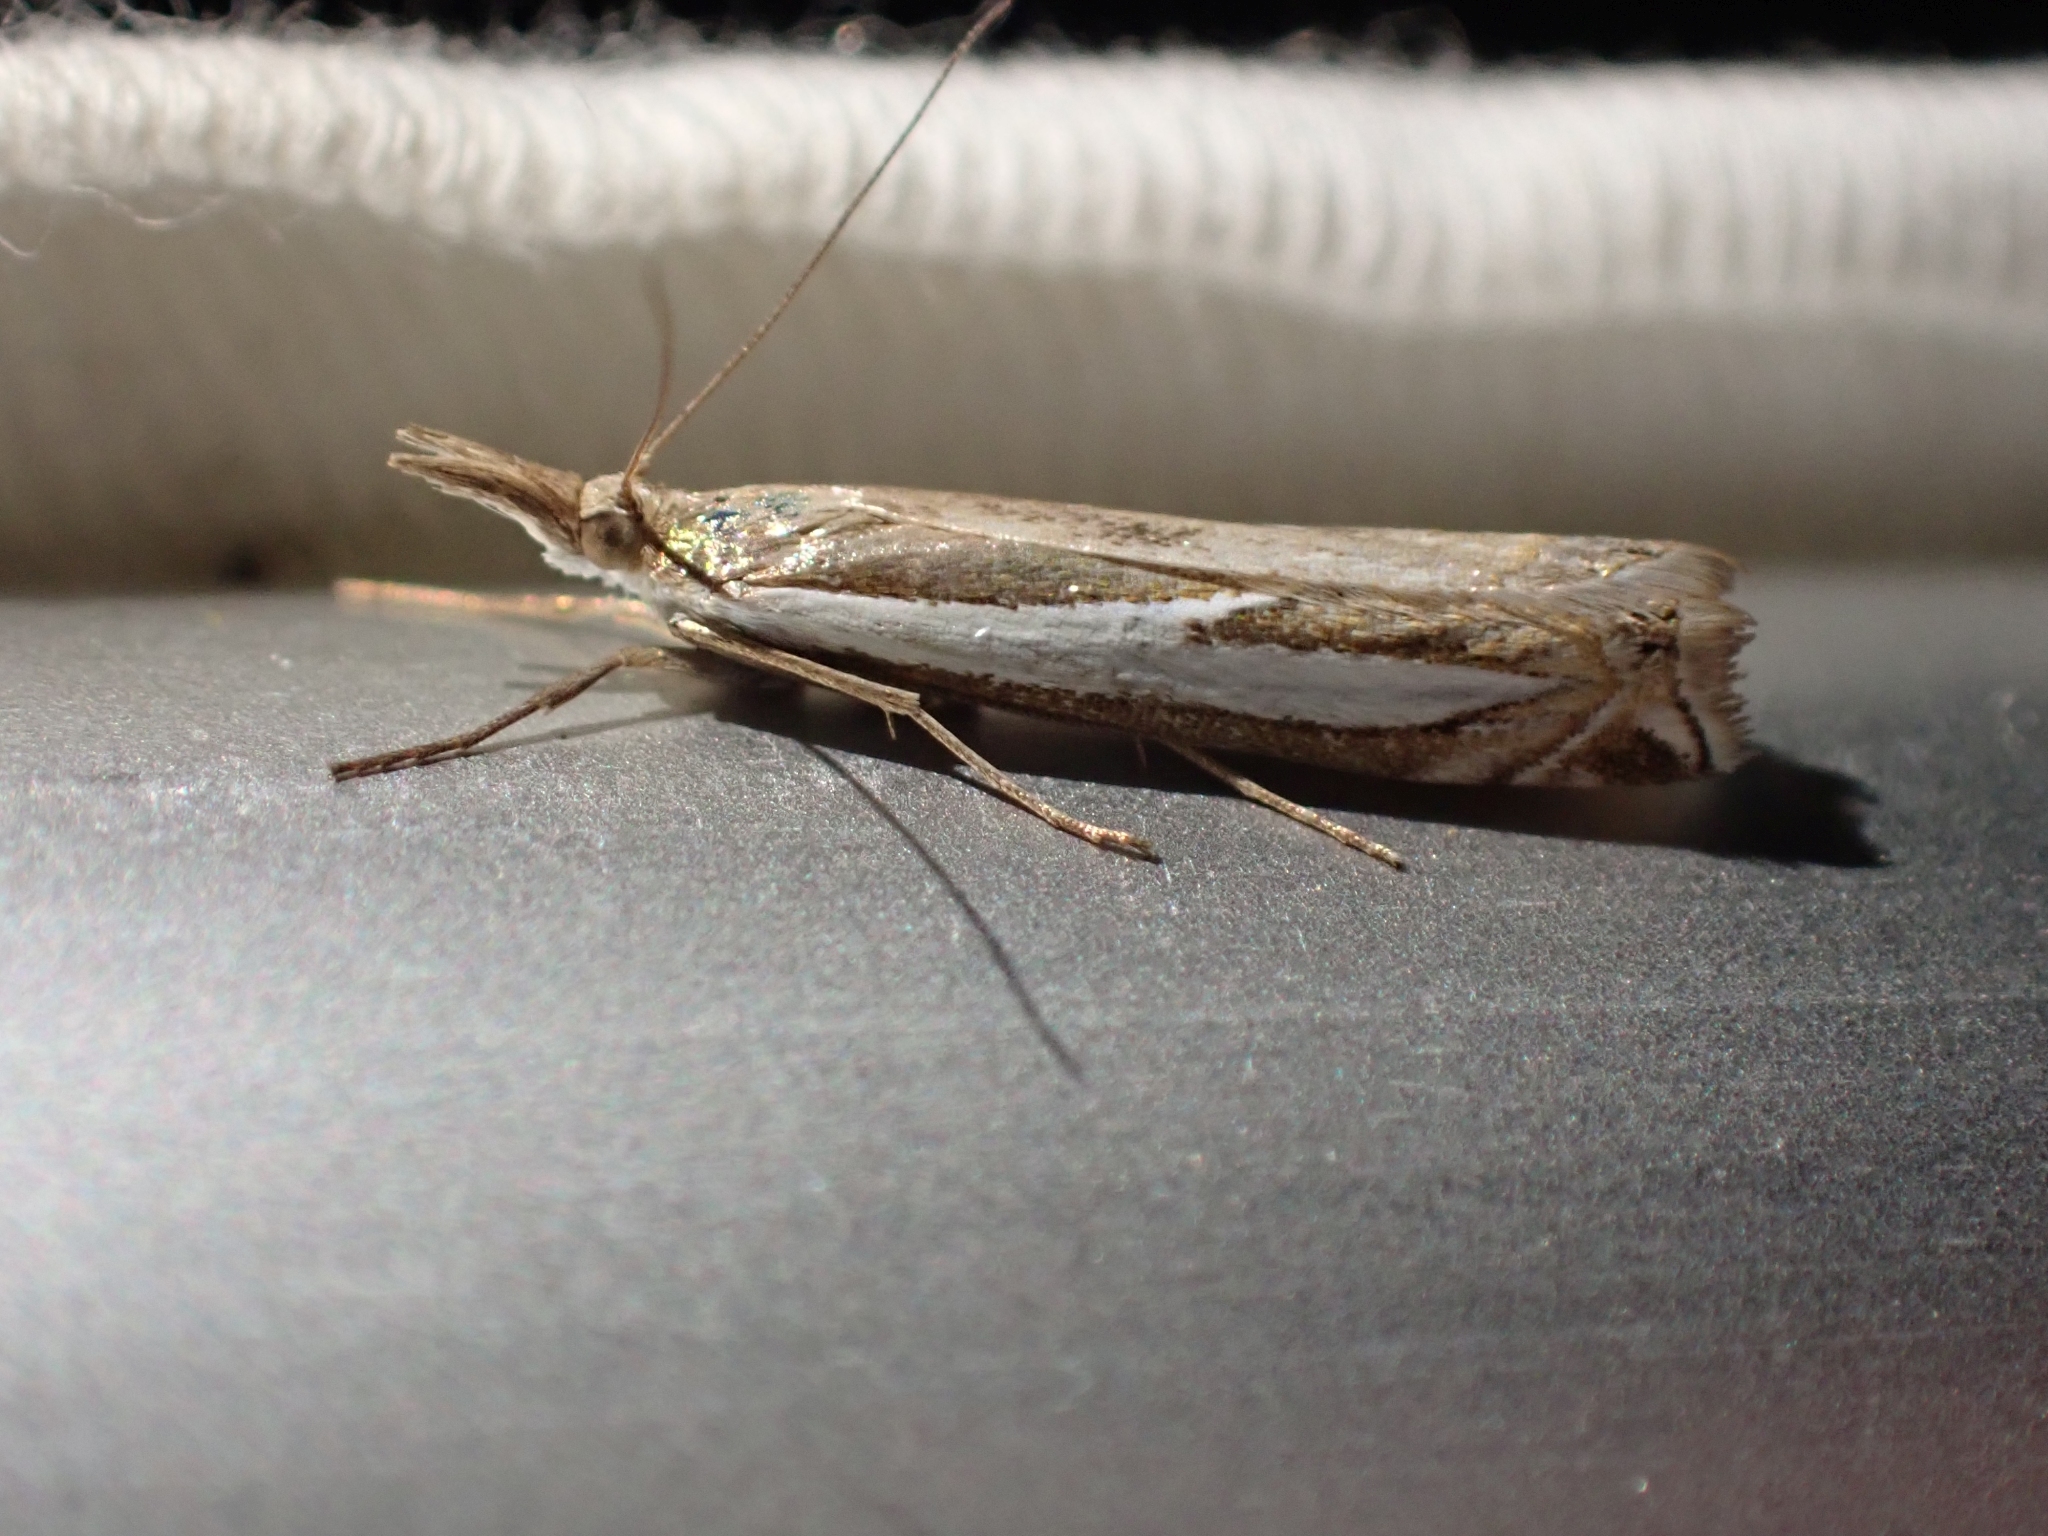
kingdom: Animalia
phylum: Arthropoda
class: Insecta
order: Lepidoptera
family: Crambidae
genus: Crambus
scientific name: Crambus hamella
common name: Dark grass-veneer
